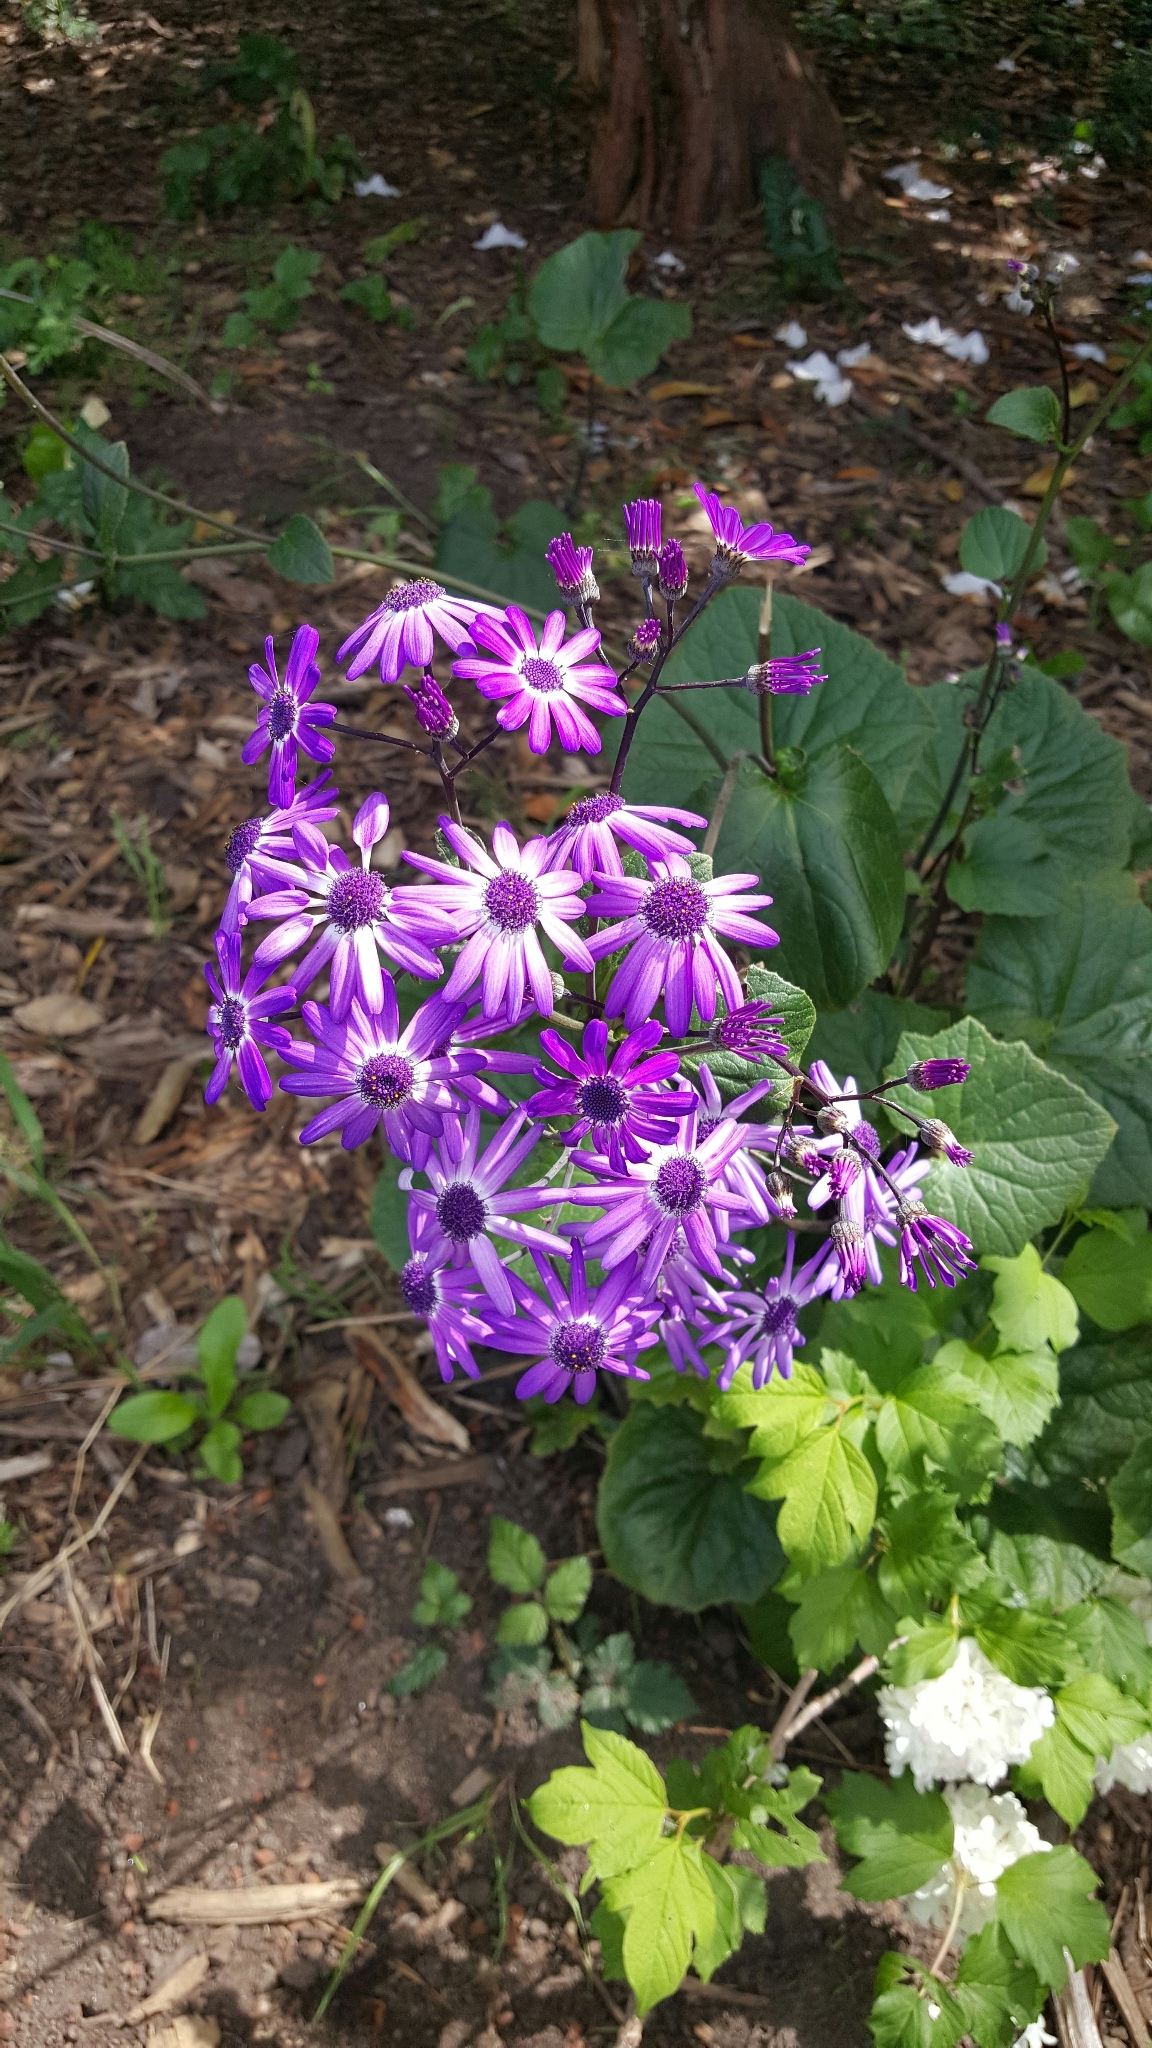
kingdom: Plantae
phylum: Tracheophyta
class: Magnoliopsida
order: Asterales
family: Asteraceae
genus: Pericallis
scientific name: Pericallis hybrida
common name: Cineraria
